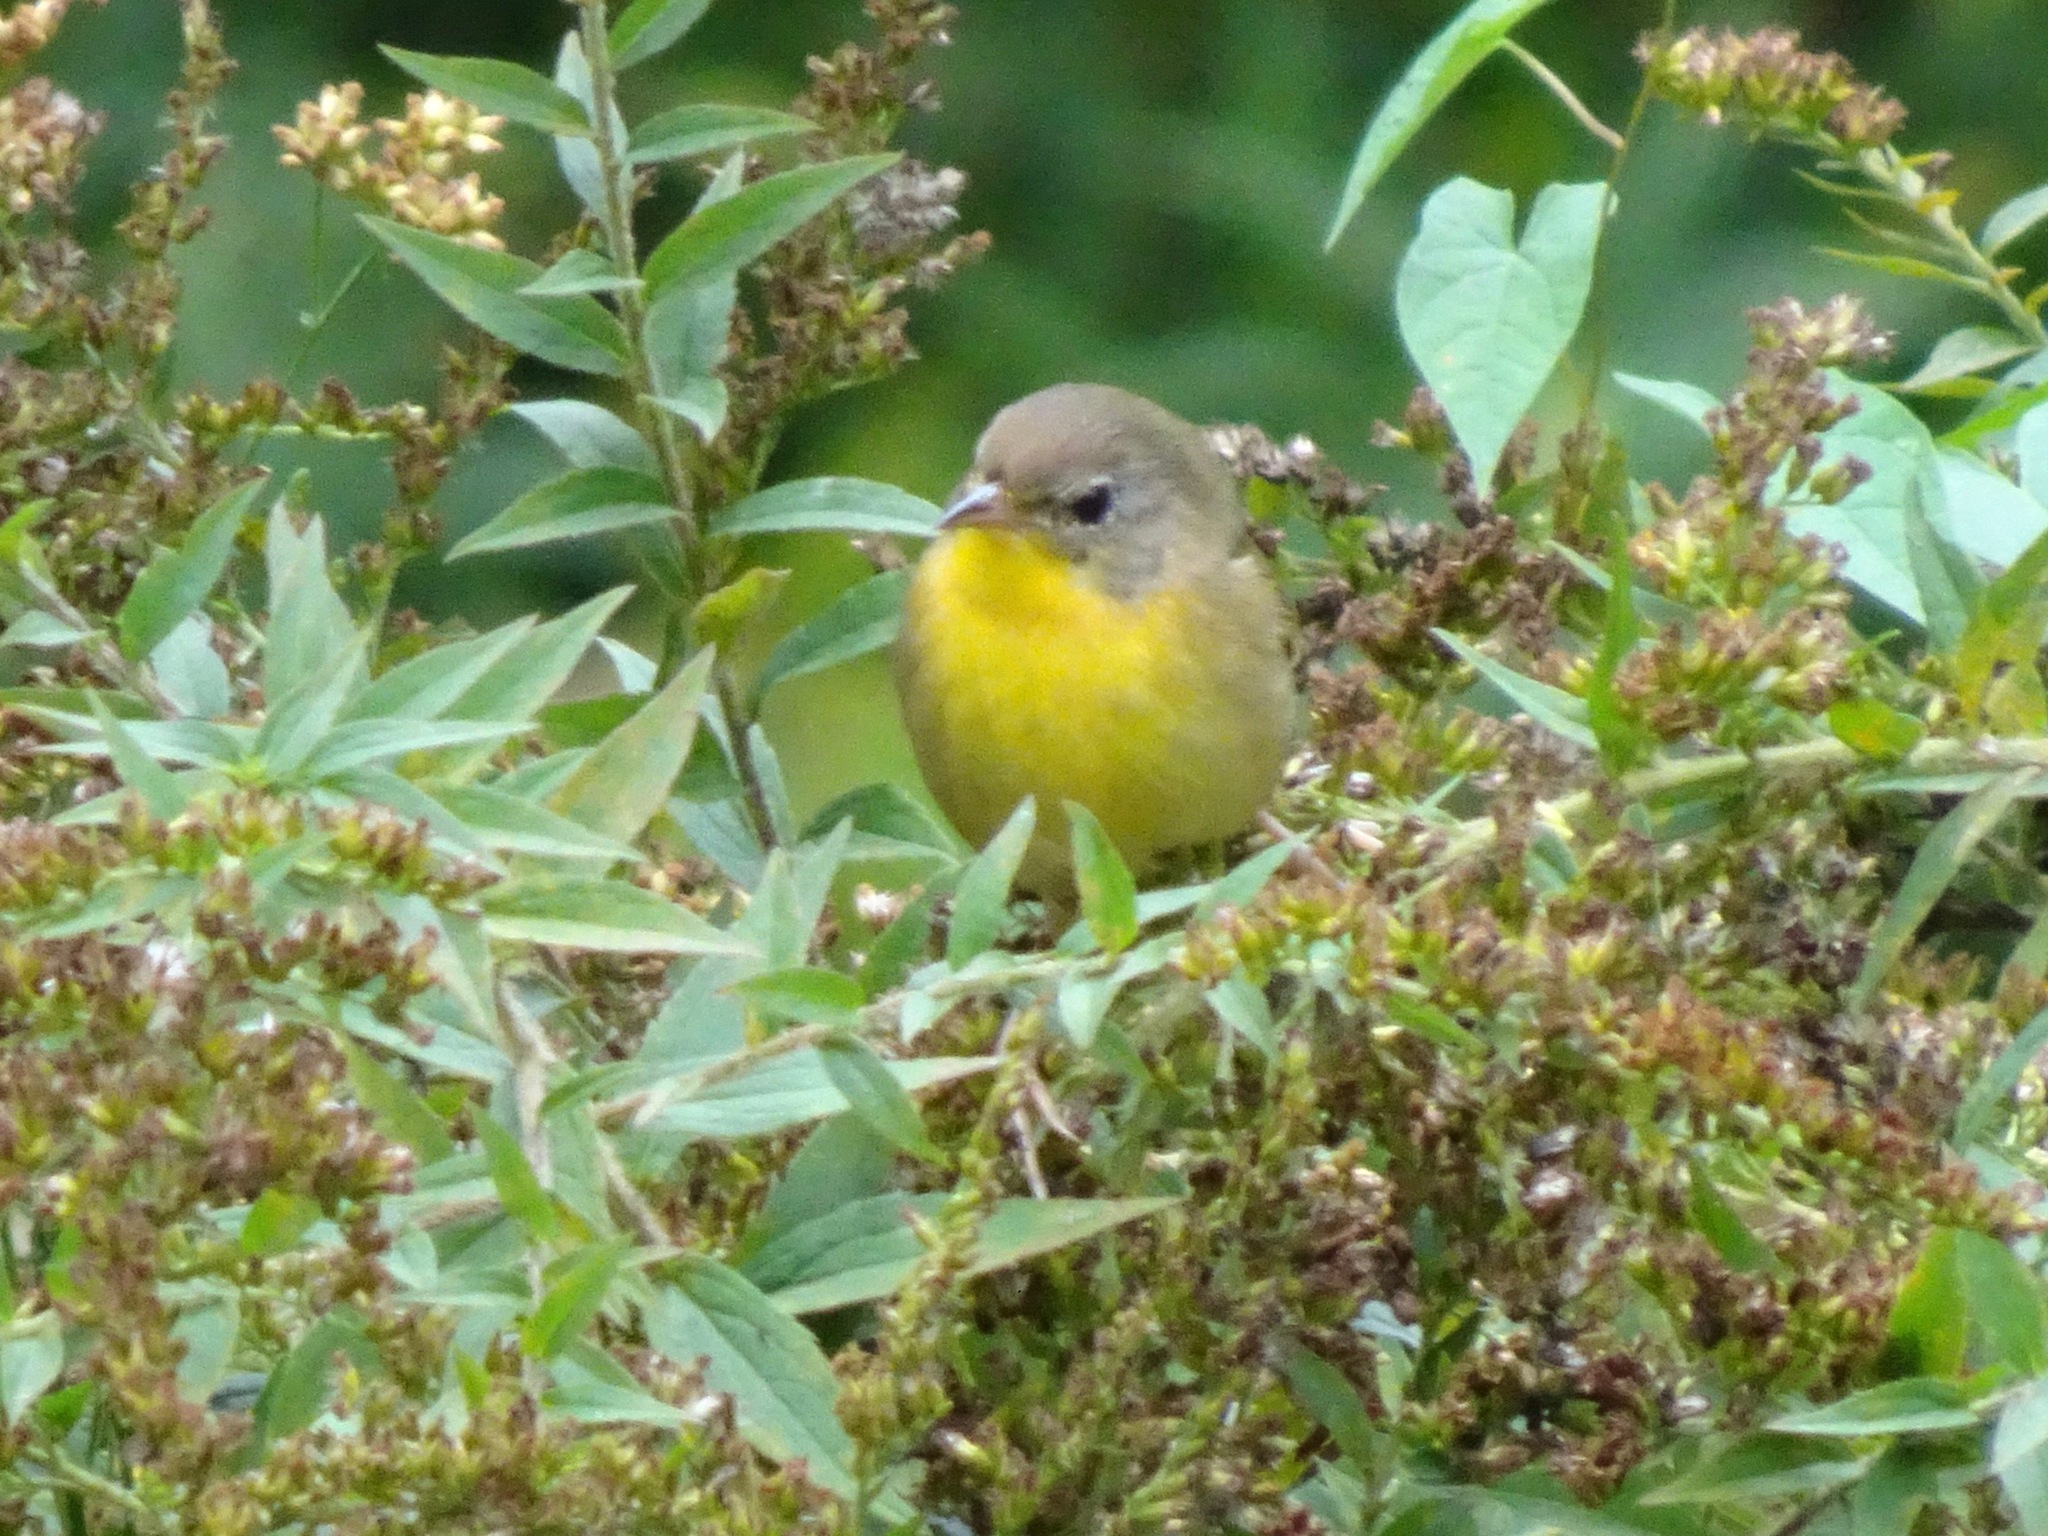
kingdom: Animalia
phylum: Chordata
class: Aves
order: Passeriformes
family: Parulidae
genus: Geothlypis
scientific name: Geothlypis trichas
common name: Common yellowthroat
